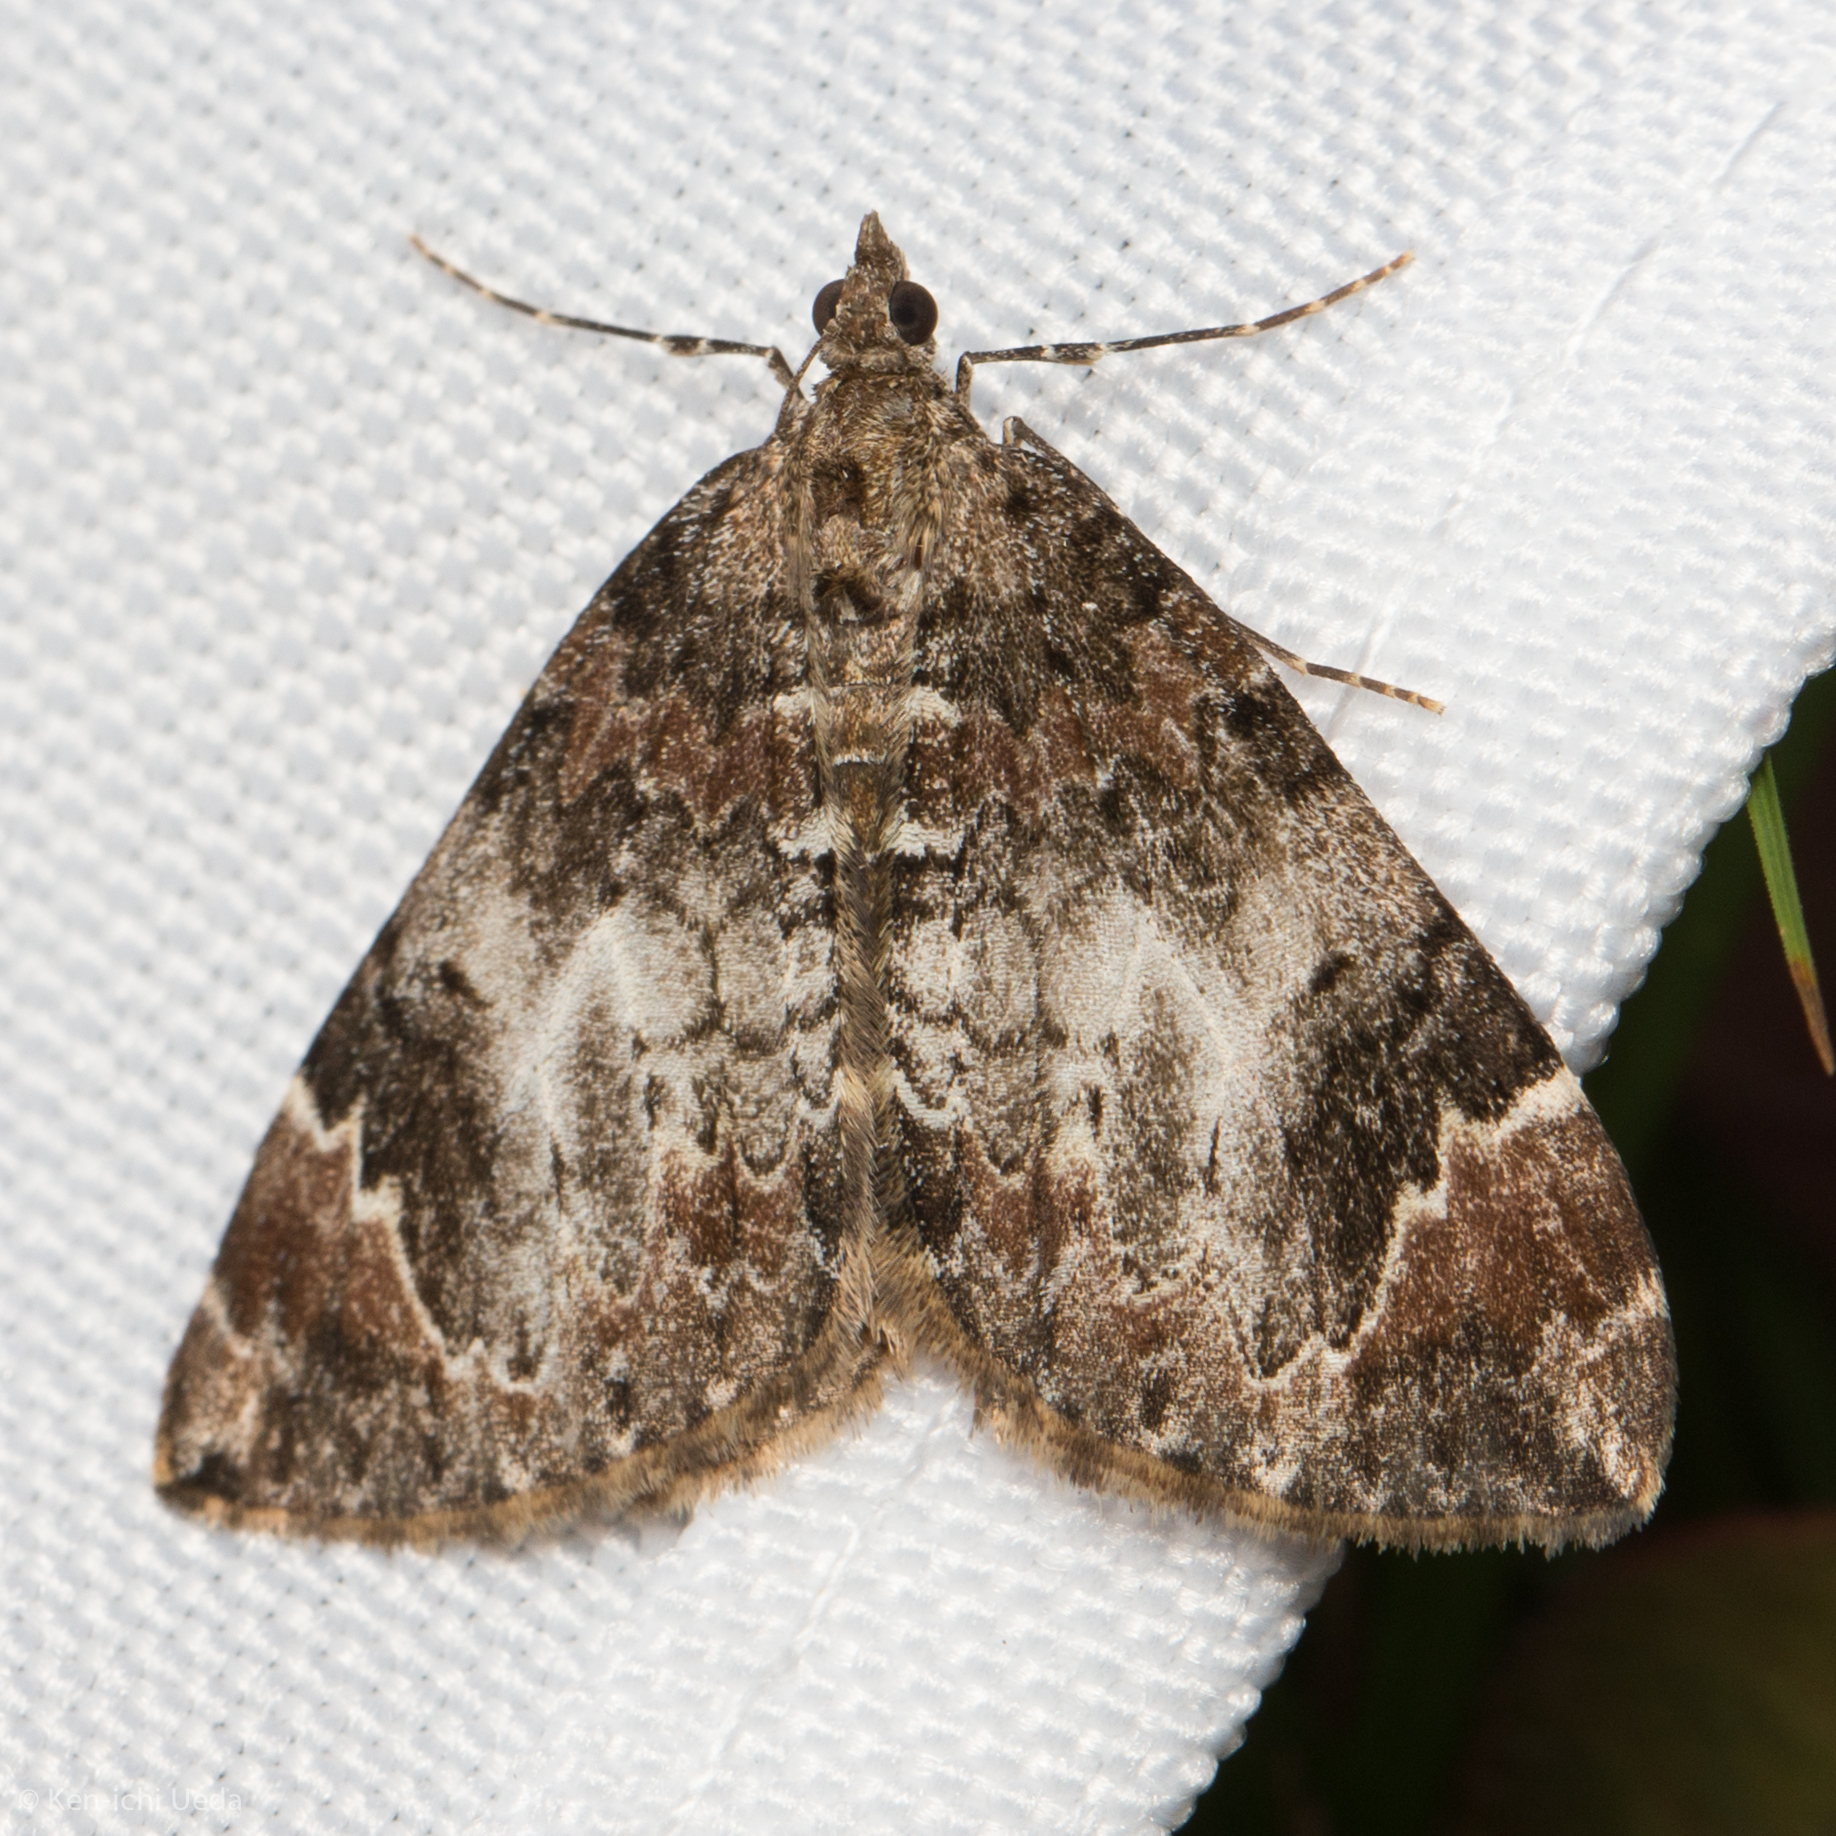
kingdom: Animalia
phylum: Arthropoda
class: Insecta
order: Lepidoptera
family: Geometridae
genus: Dysstroma
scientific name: Dysstroma citrata
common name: Dark marbled carpet
